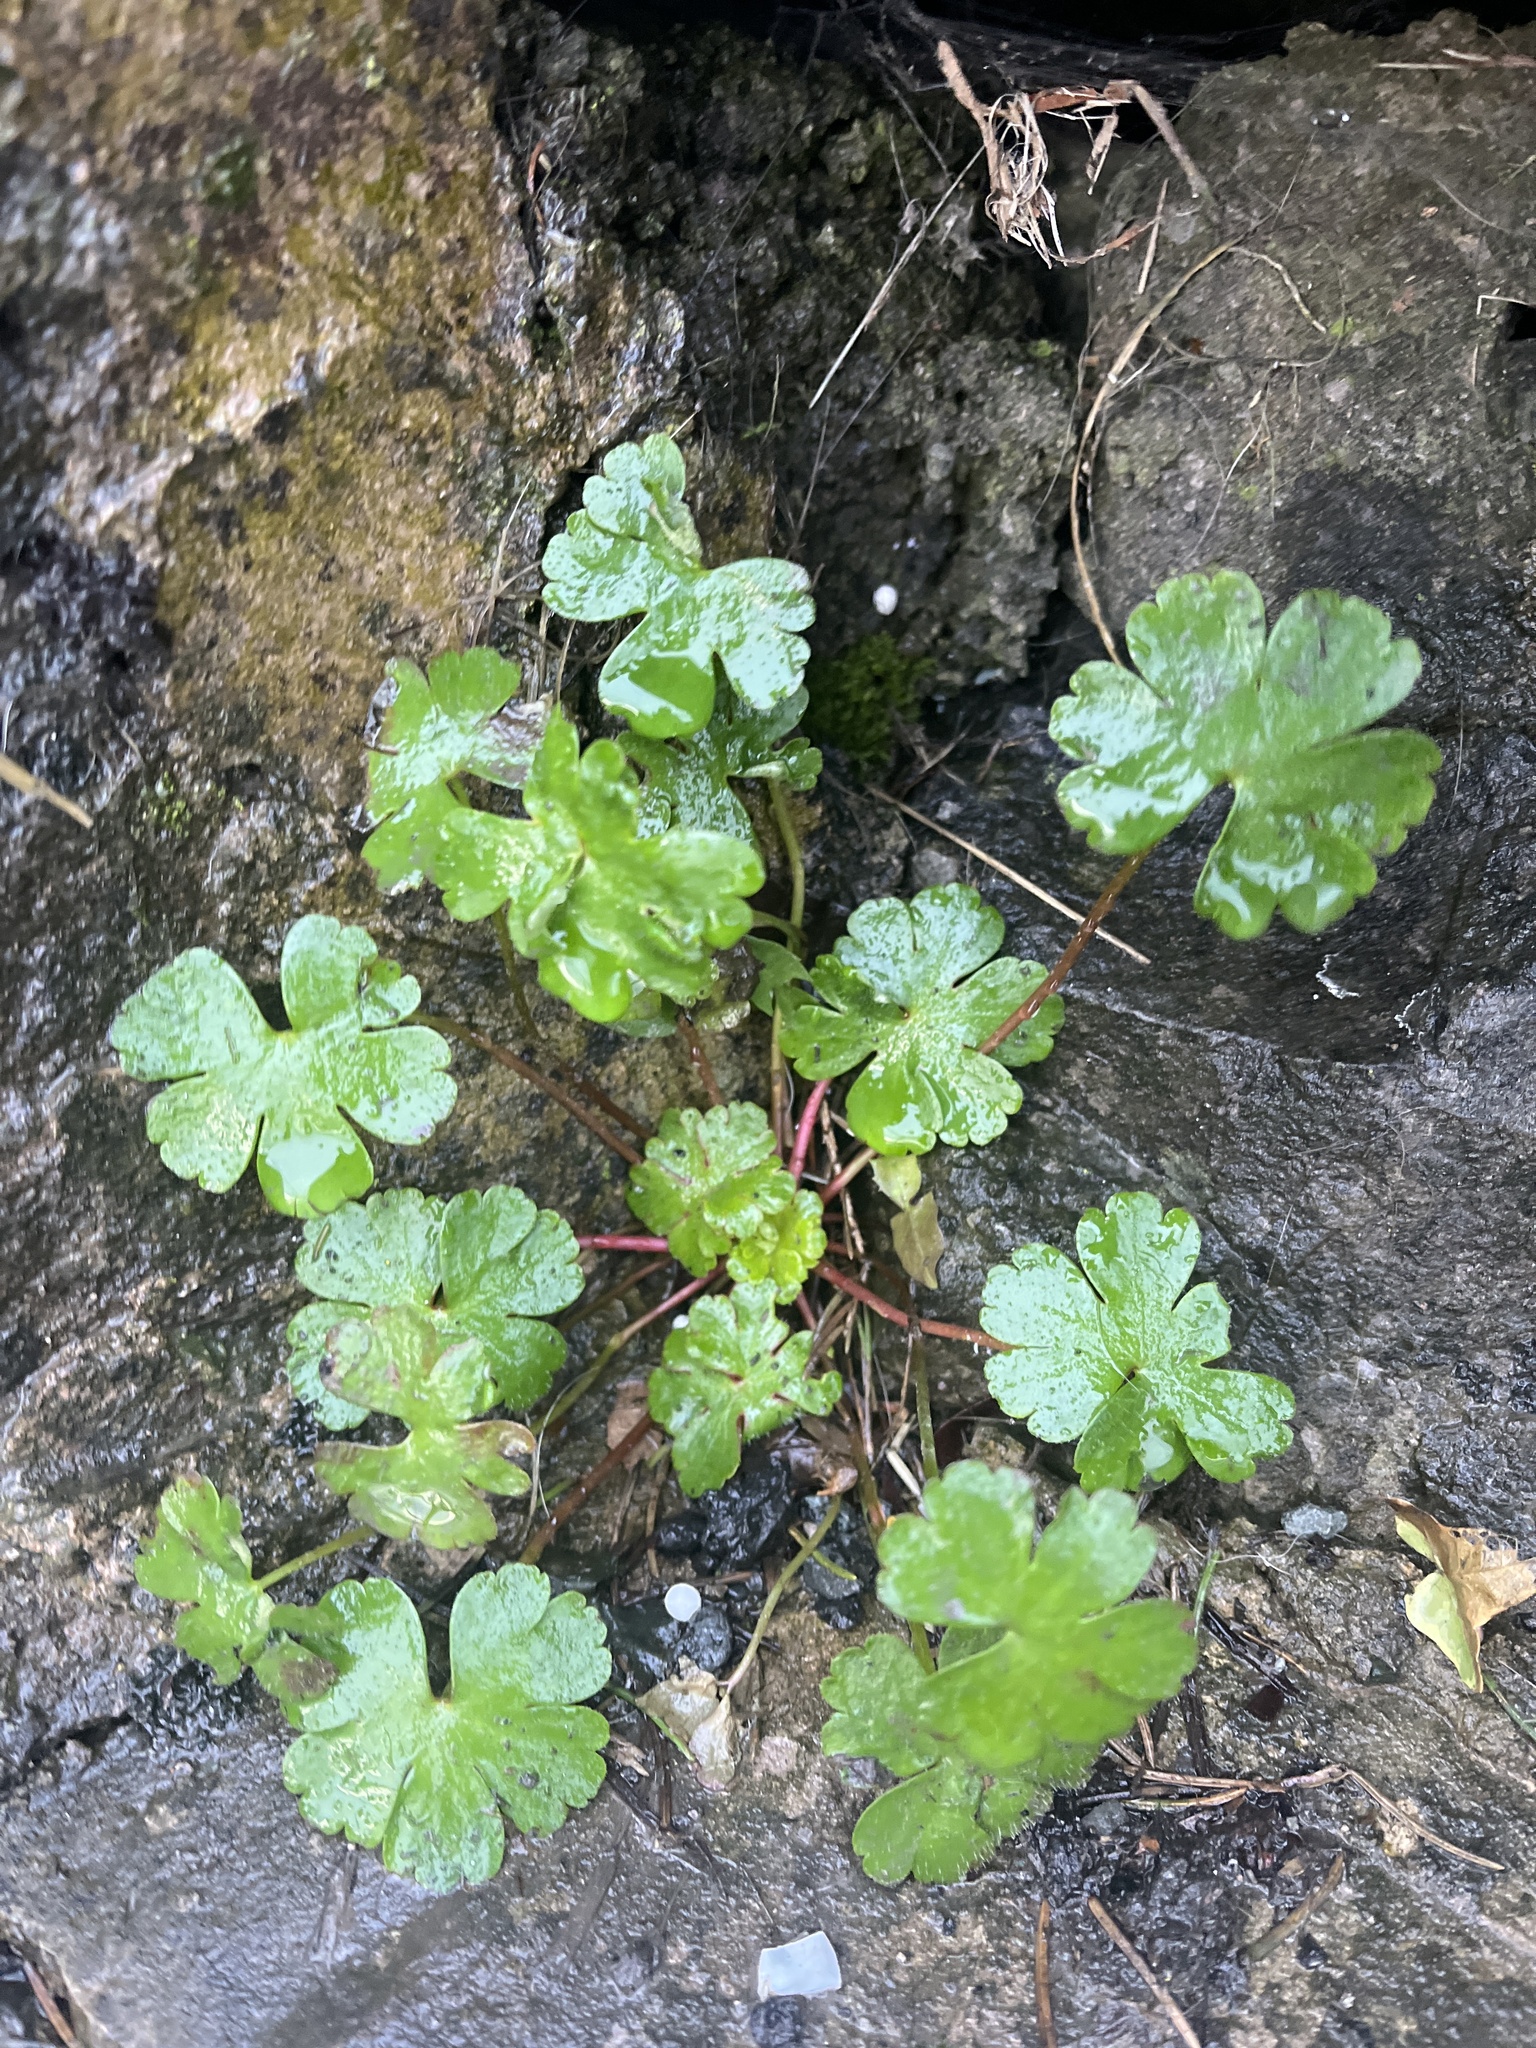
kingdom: Plantae
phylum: Tracheophyta
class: Magnoliopsida
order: Geraniales
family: Geraniaceae
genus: Geranium
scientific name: Geranium lucidum
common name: Shining crane's-bill
